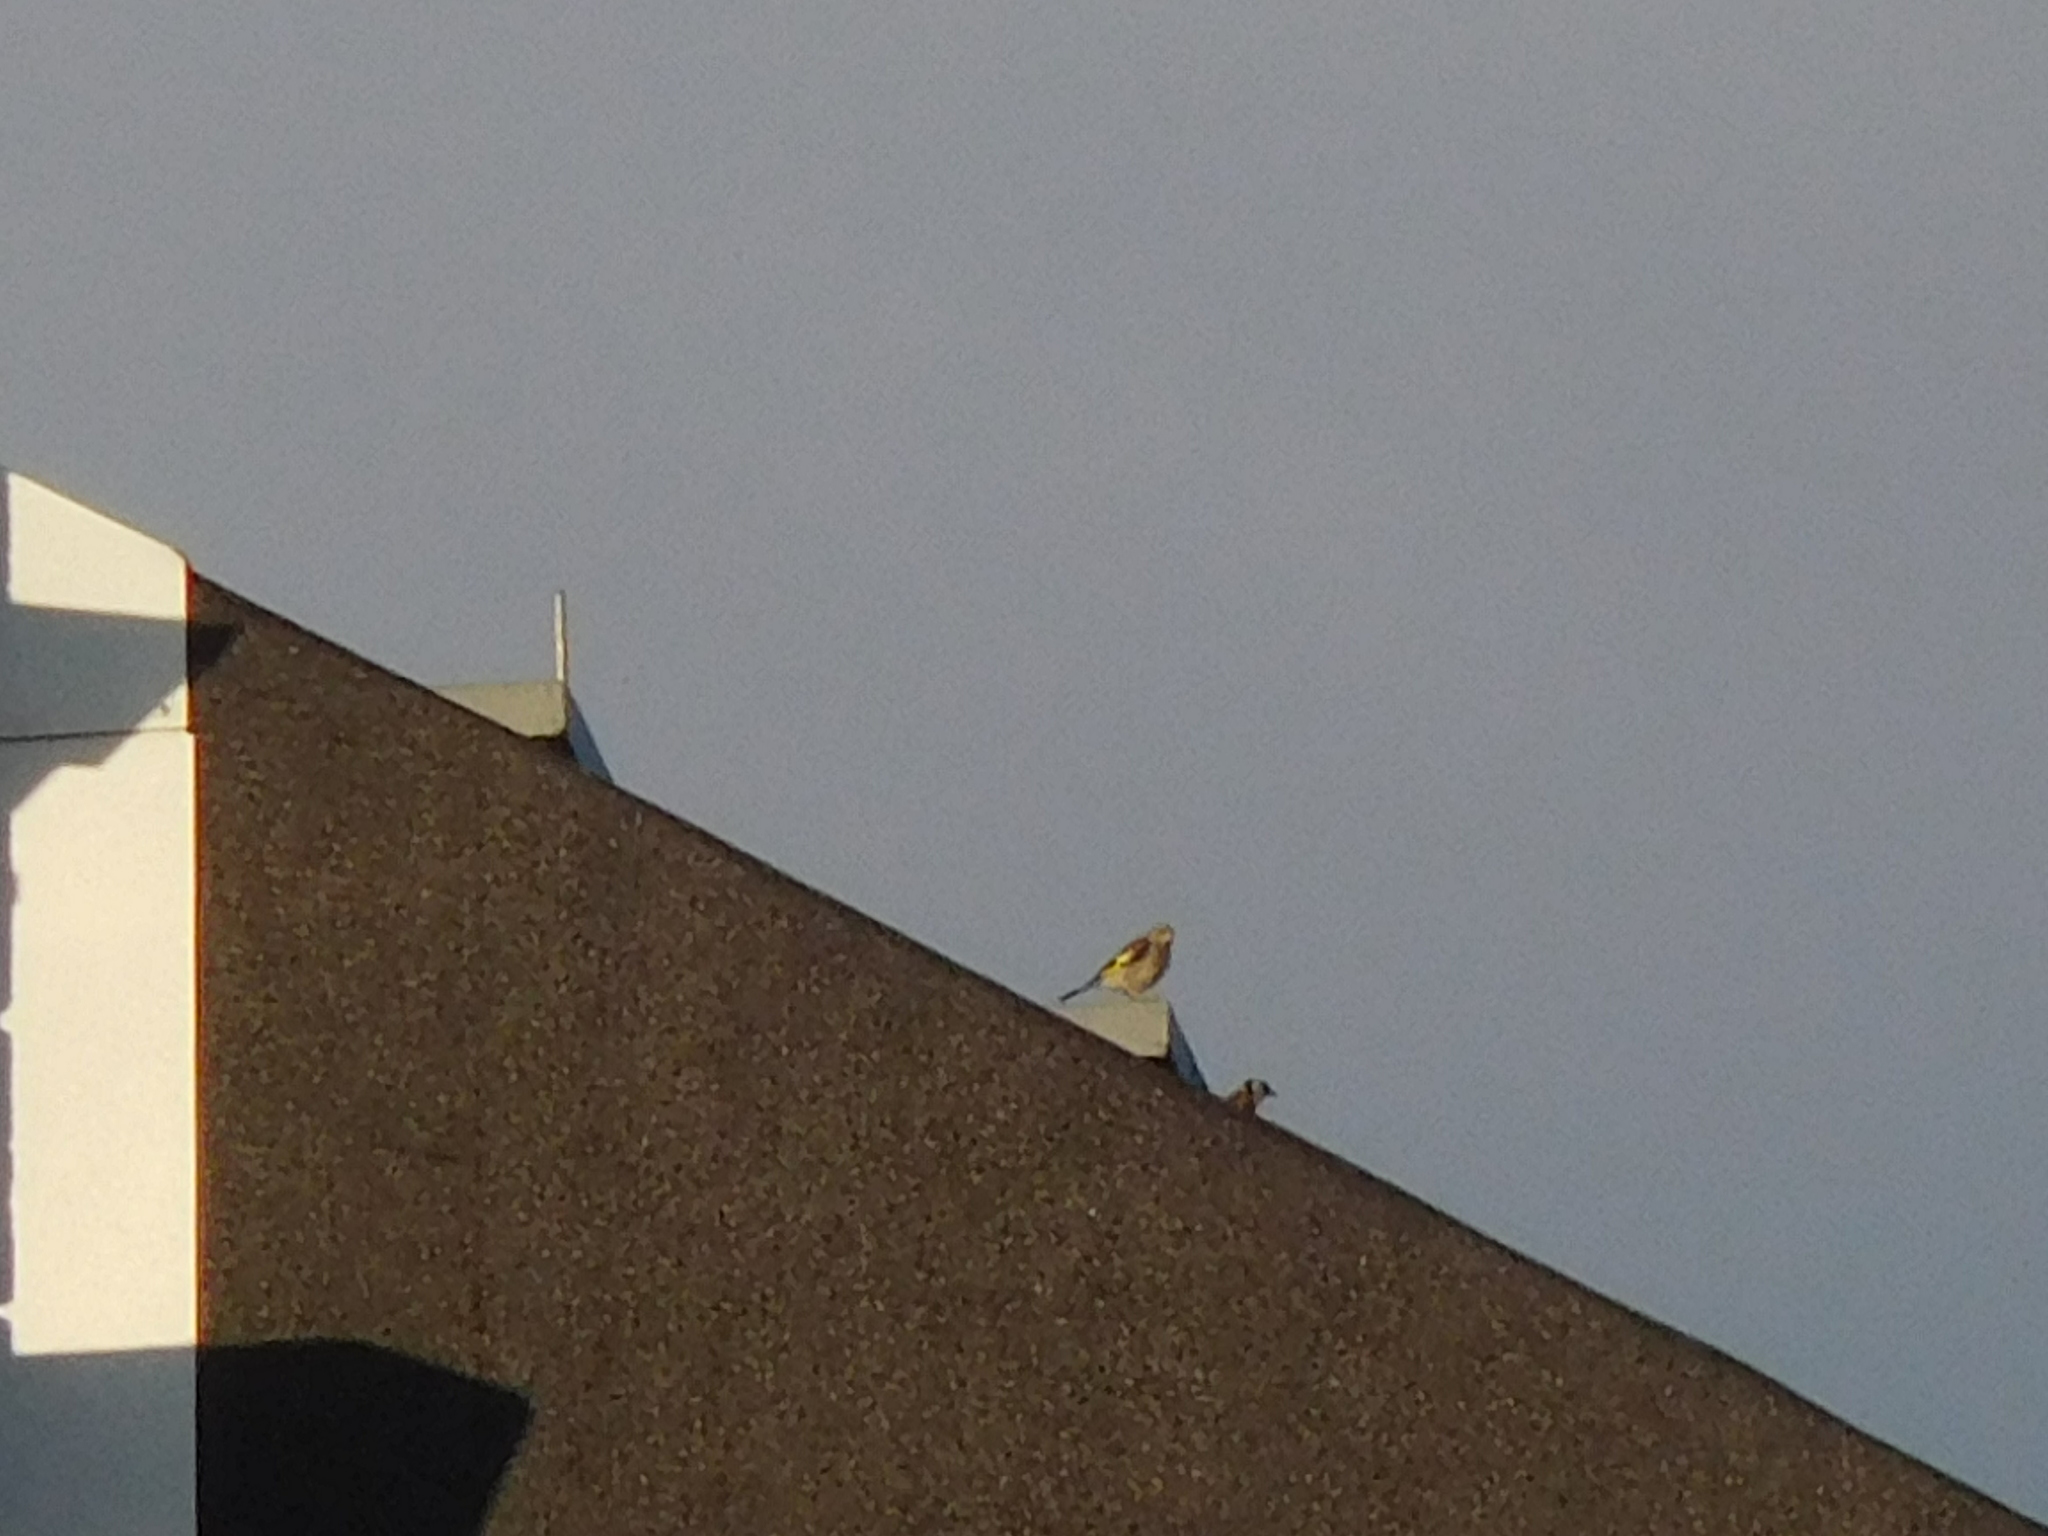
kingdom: Animalia
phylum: Chordata
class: Aves
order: Passeriformes
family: Fringillidae
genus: Carduelis
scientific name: Carduelis carduelis
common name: European goldfinch
